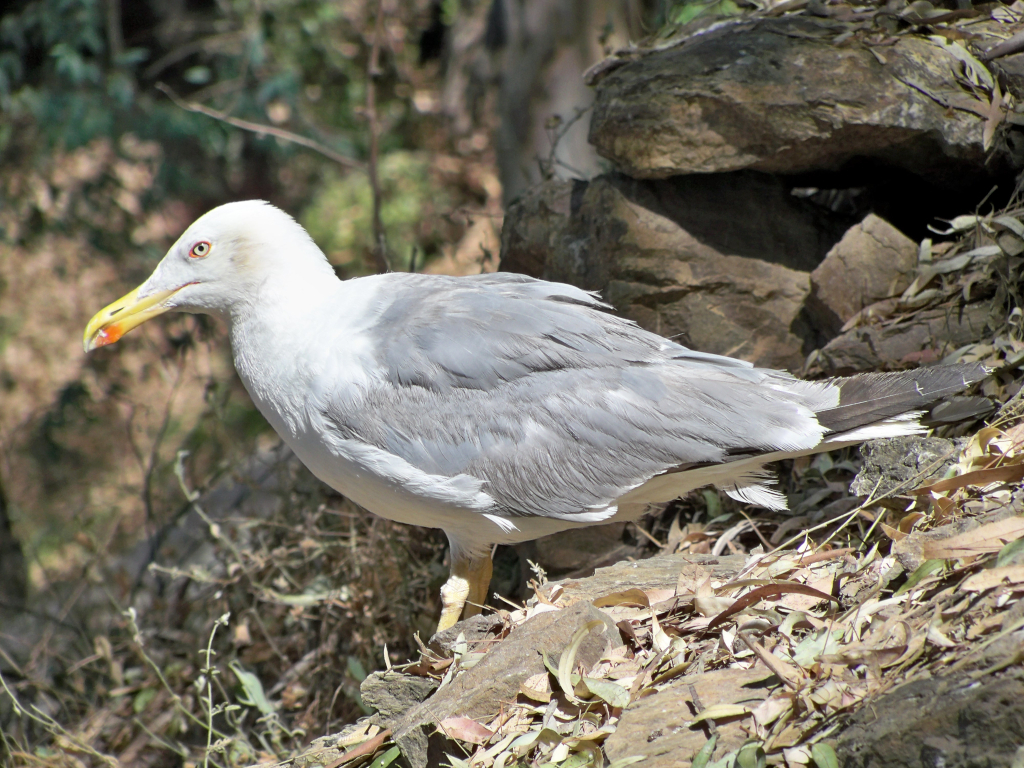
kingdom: Animalia
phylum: Chordata
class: Aves
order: Charadriiformes
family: Laridae
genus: Larus
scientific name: Larus michahellis
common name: Yellow-legged gull
